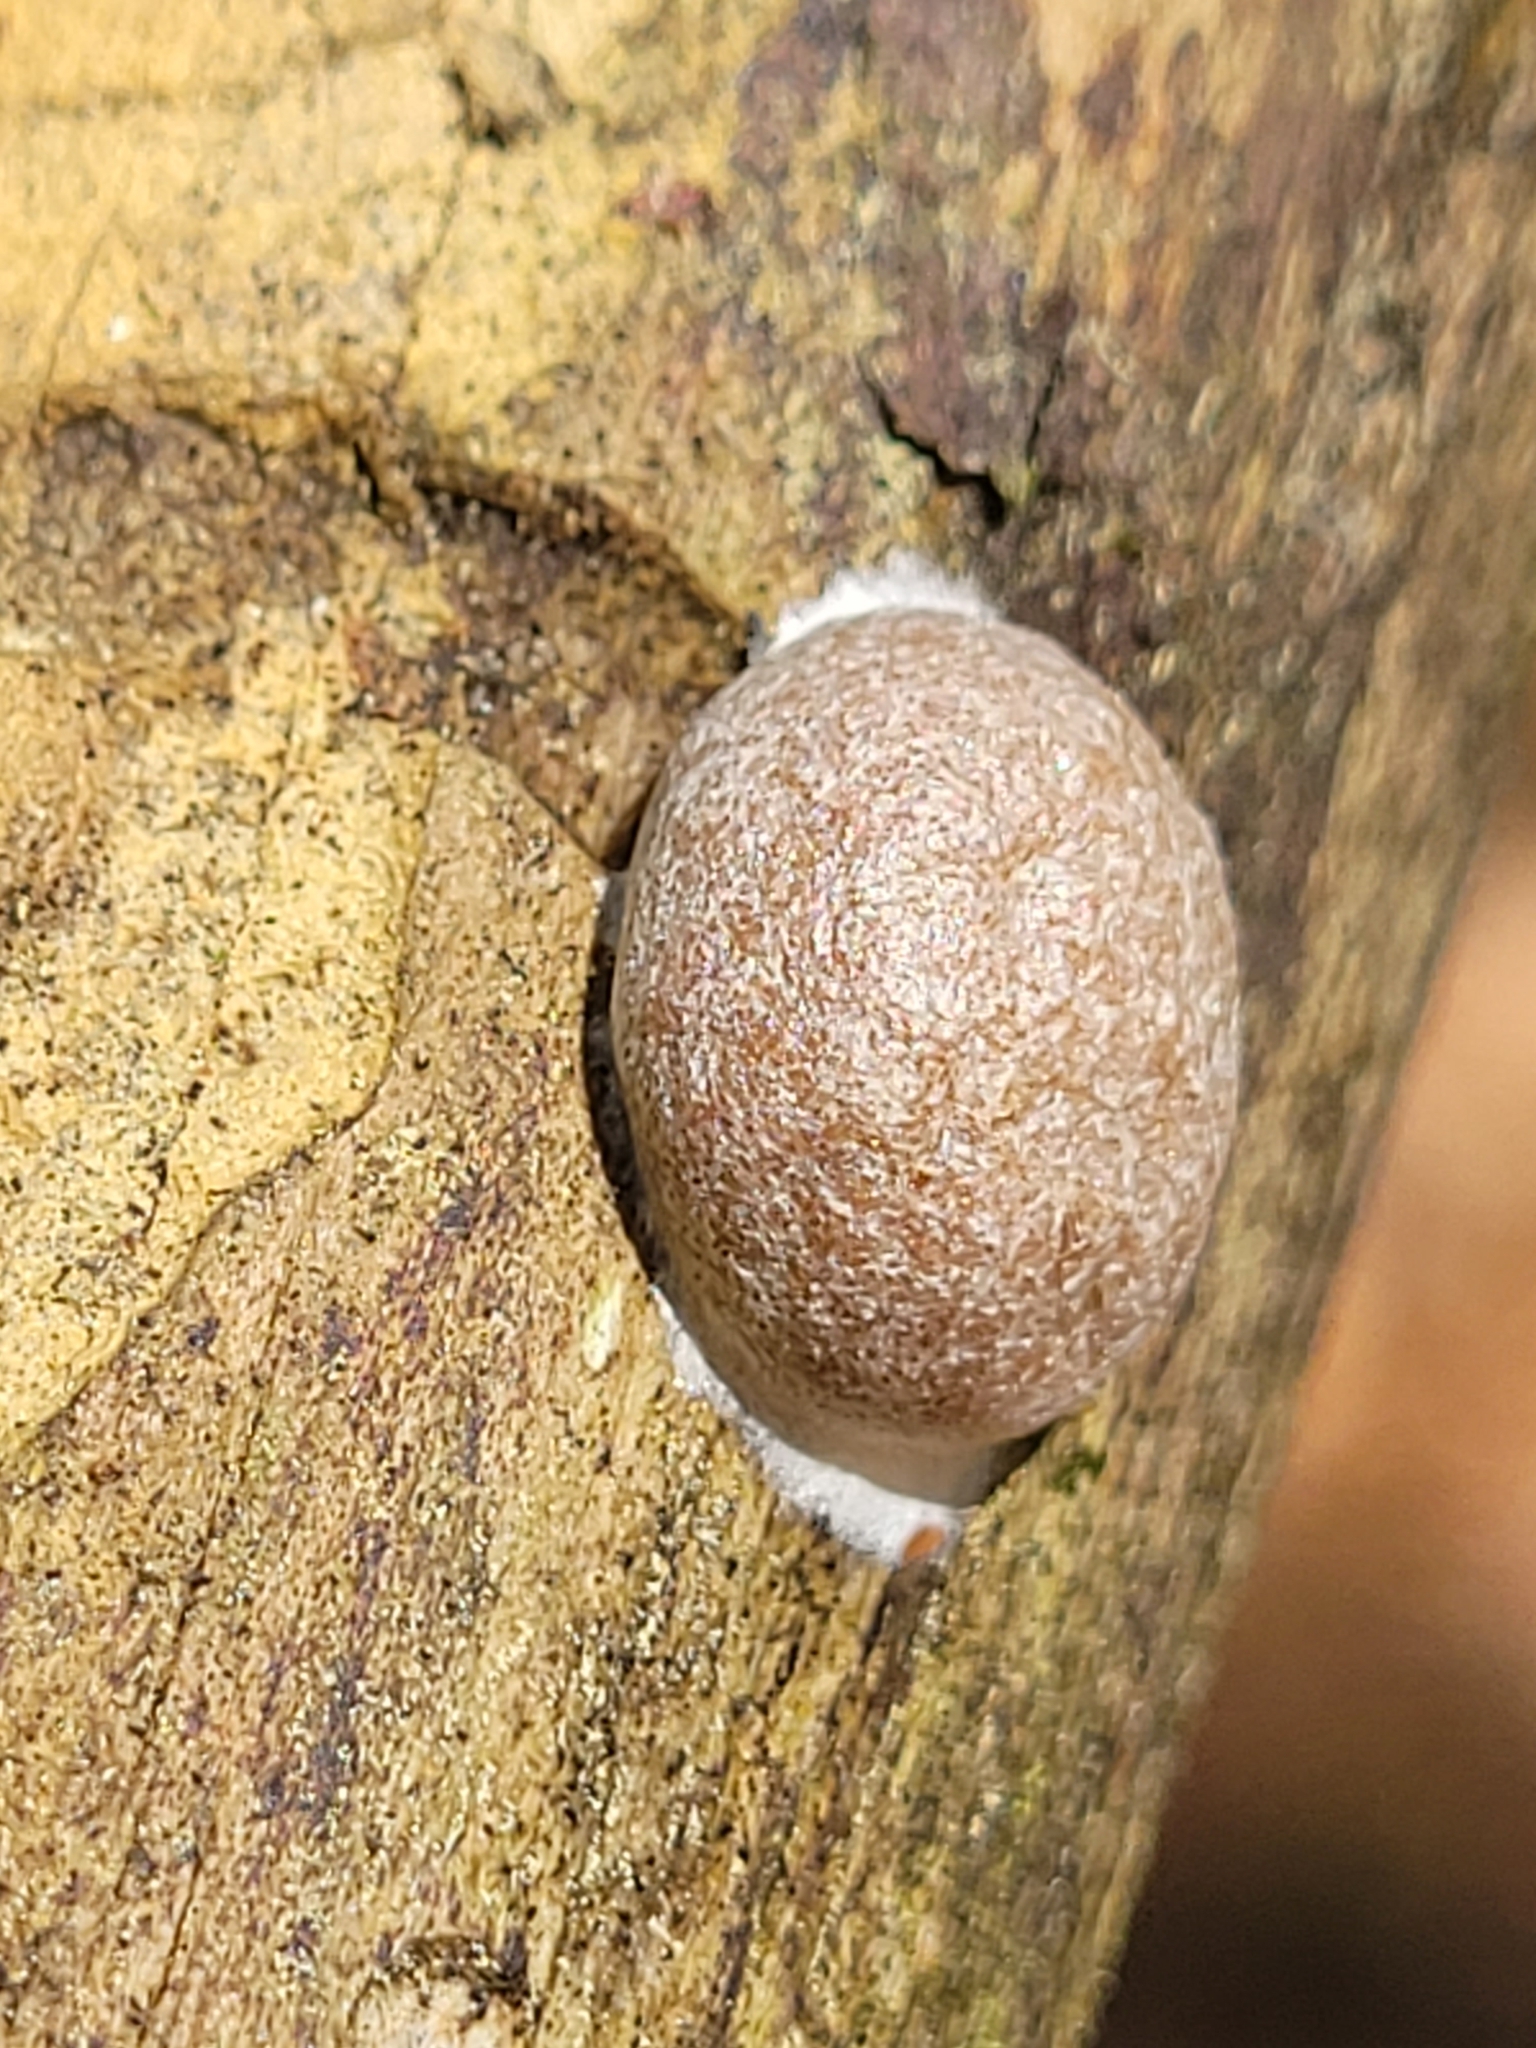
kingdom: Protozoa
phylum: Mycetozoa
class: Myxomycetes
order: Cribrariales
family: Tubiferaceae
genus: Reticularia
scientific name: Reticularia lycoperdon
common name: False puffball
